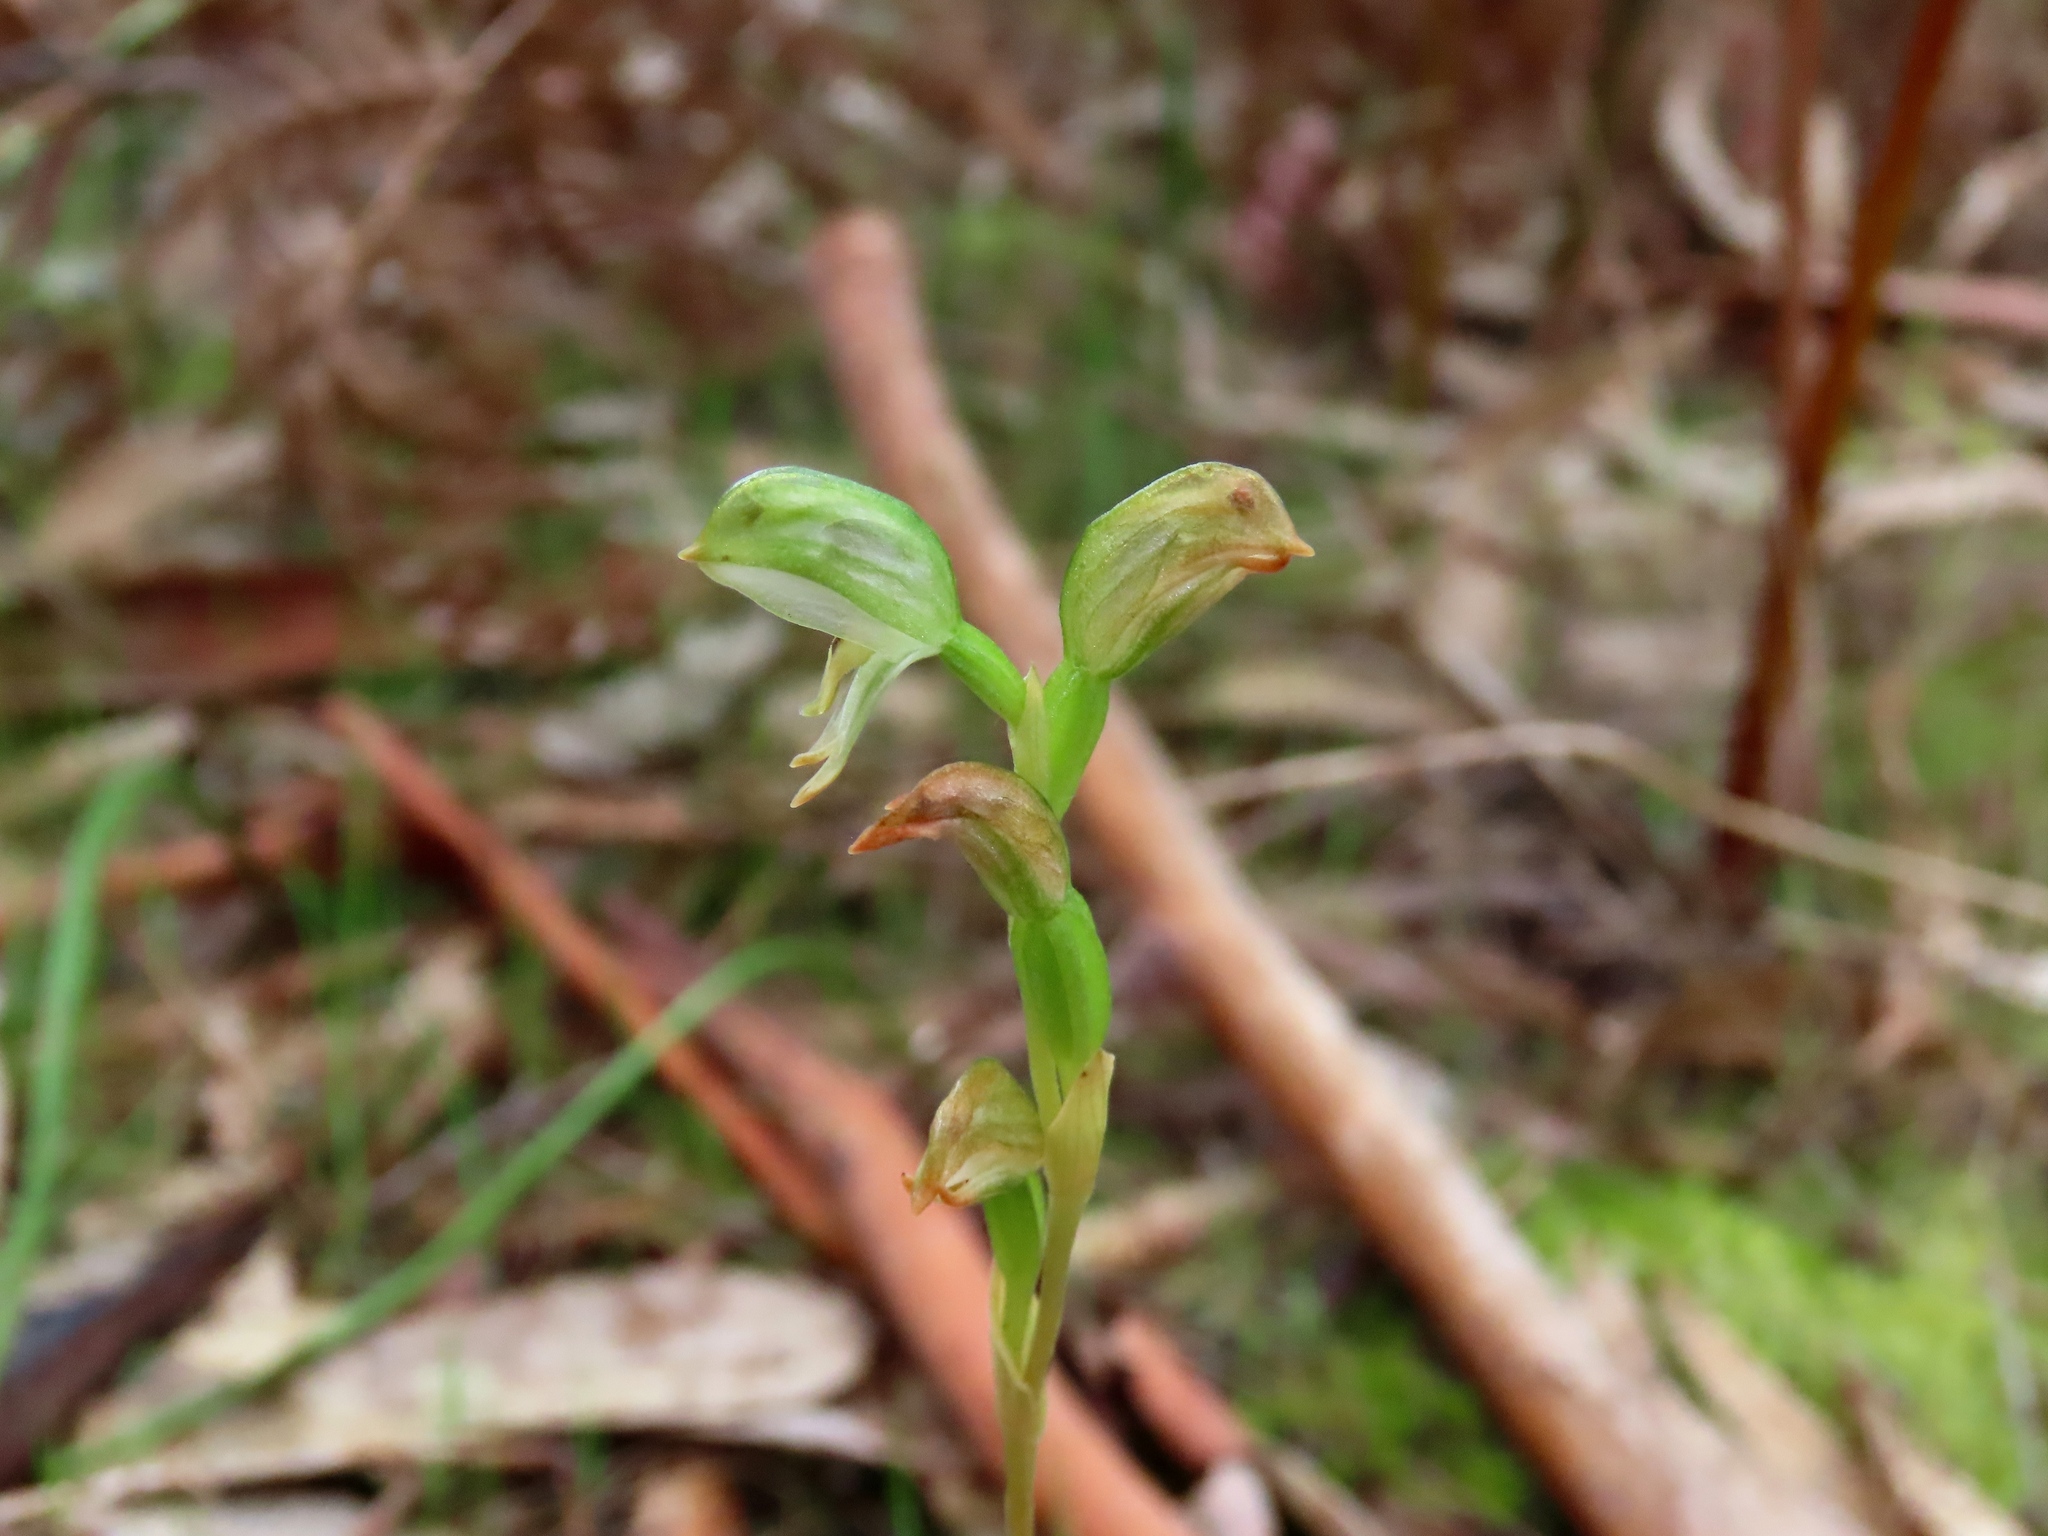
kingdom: Plantae
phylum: Tracheophyta
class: Liliopsida
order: Asparagales
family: Orchidaceae
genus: Pterostylis
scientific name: Pterostylis melagramma
